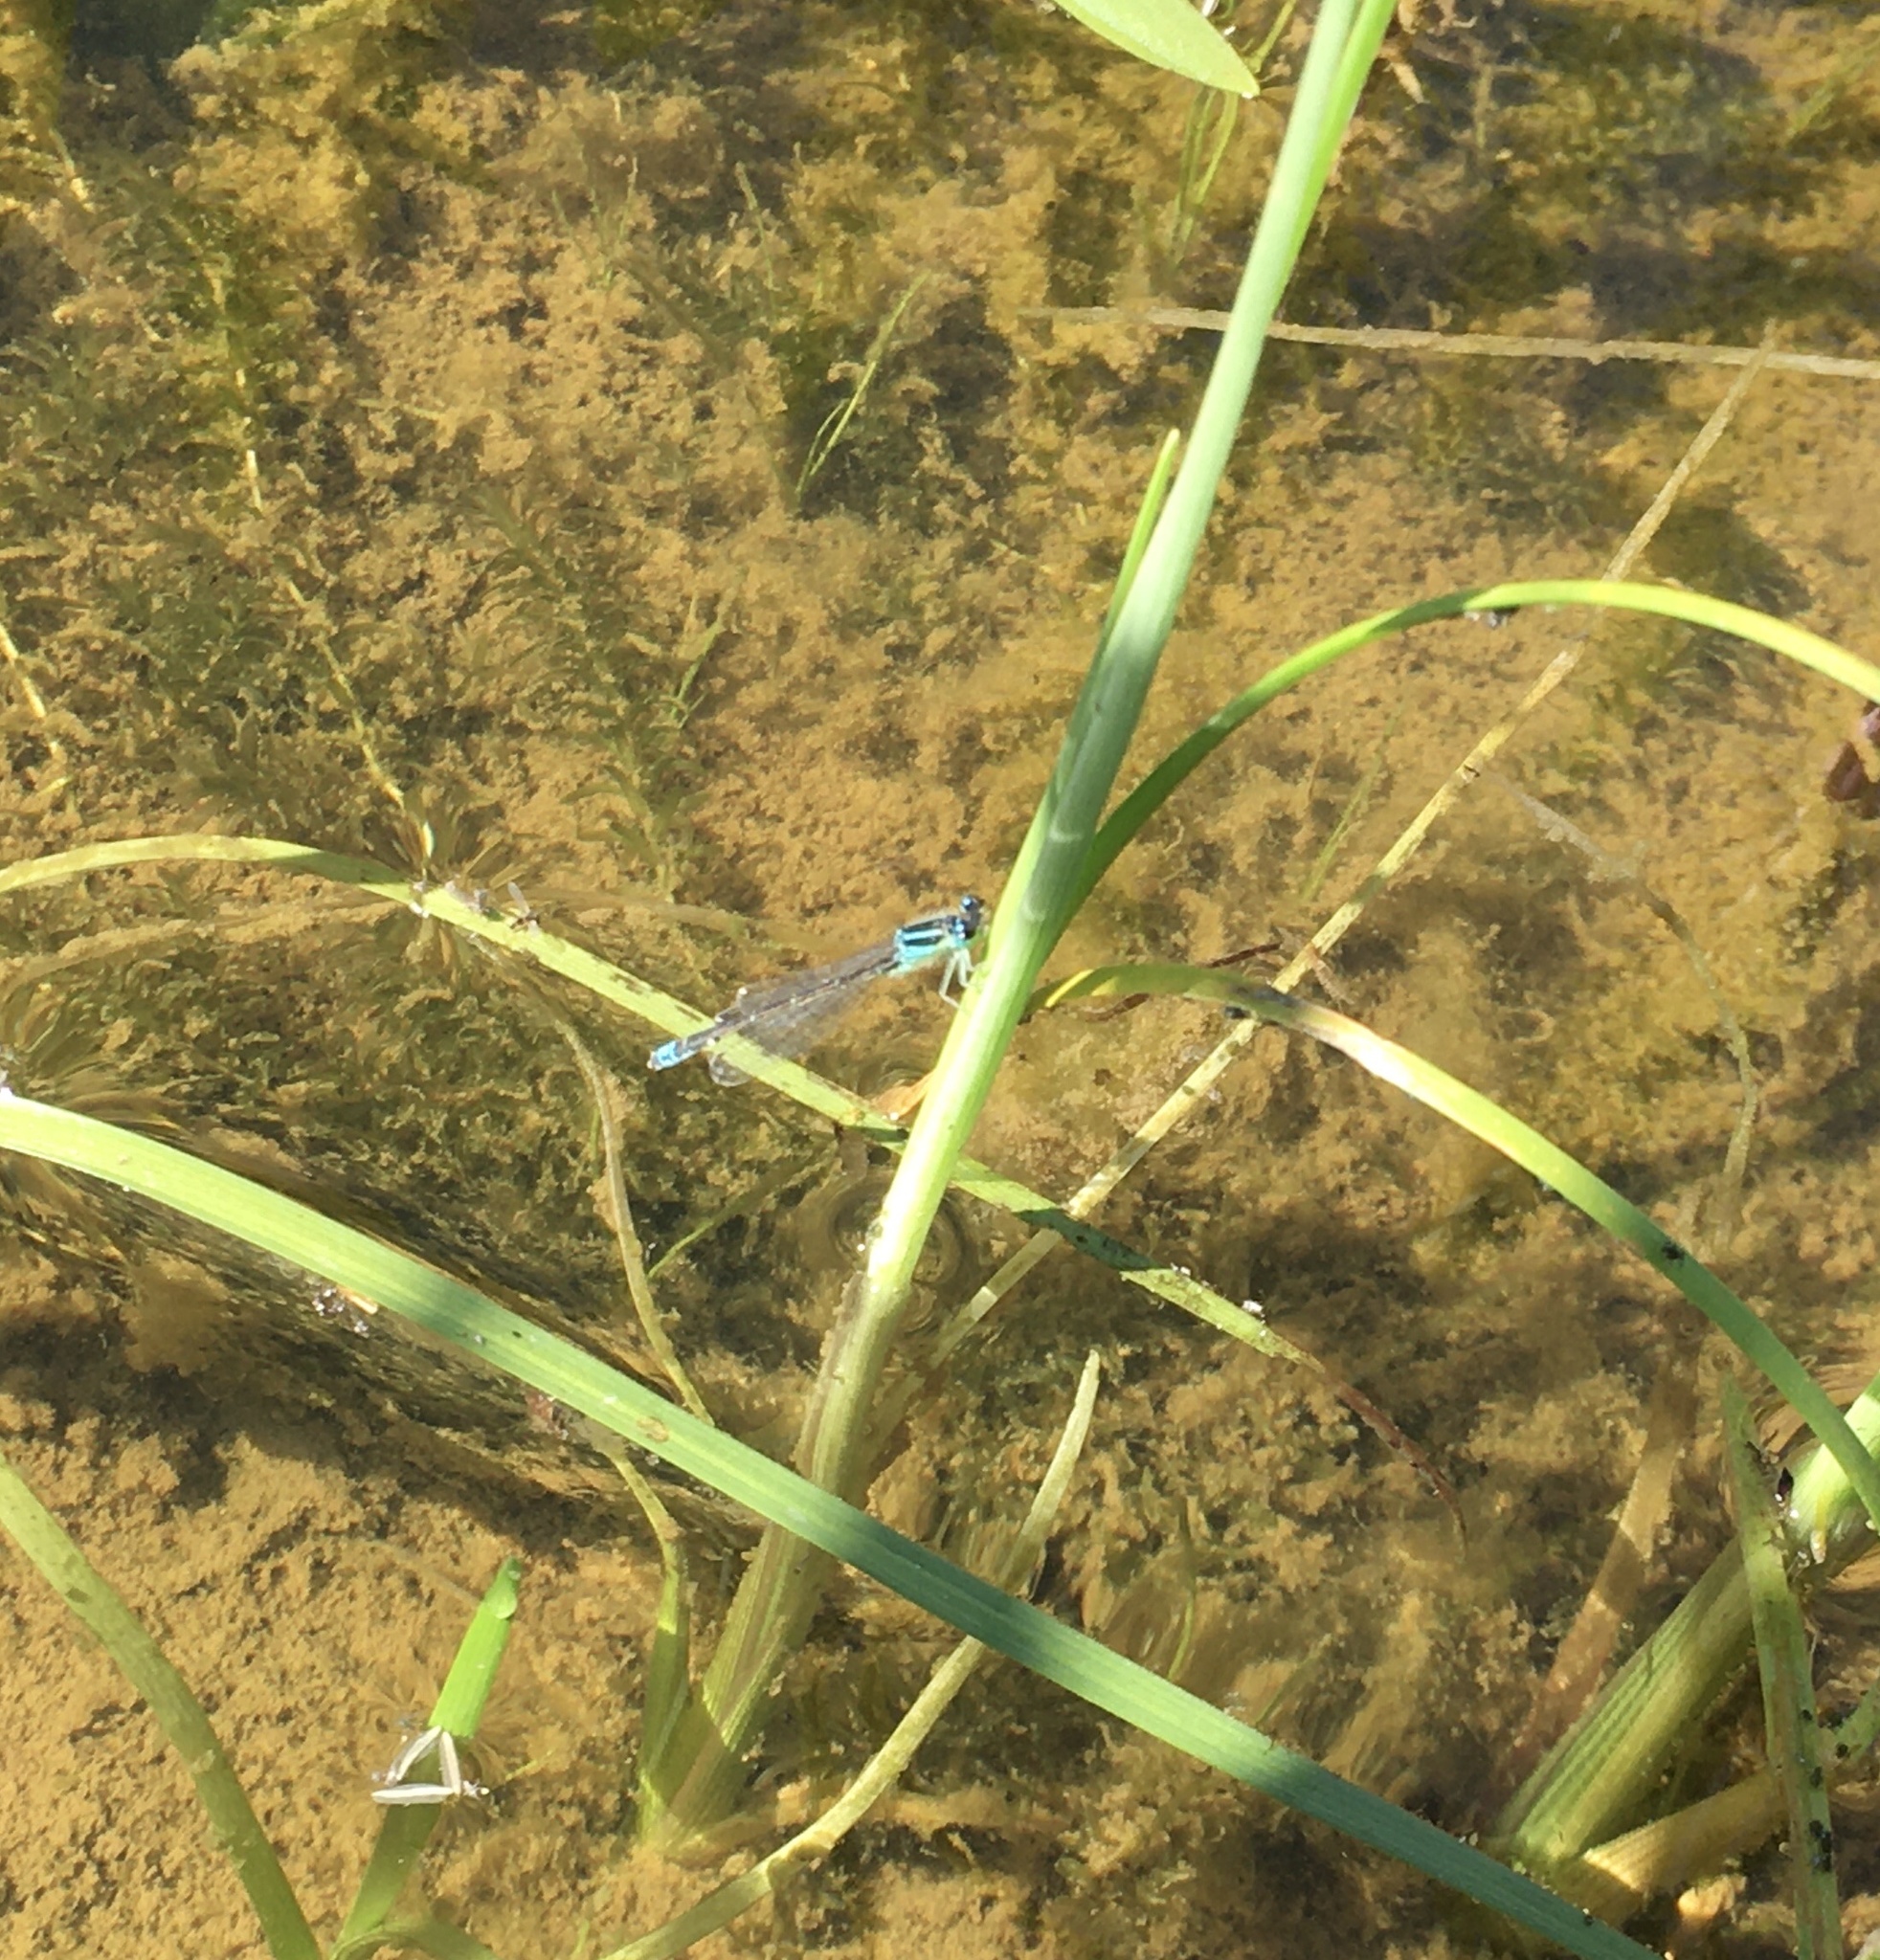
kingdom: Animalia
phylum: Arthropoda
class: Insecta
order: Odonata
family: Coenagrionidae
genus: Ischnura
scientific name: Ischnura pumilio
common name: Scarce blue-tailed damselfly
